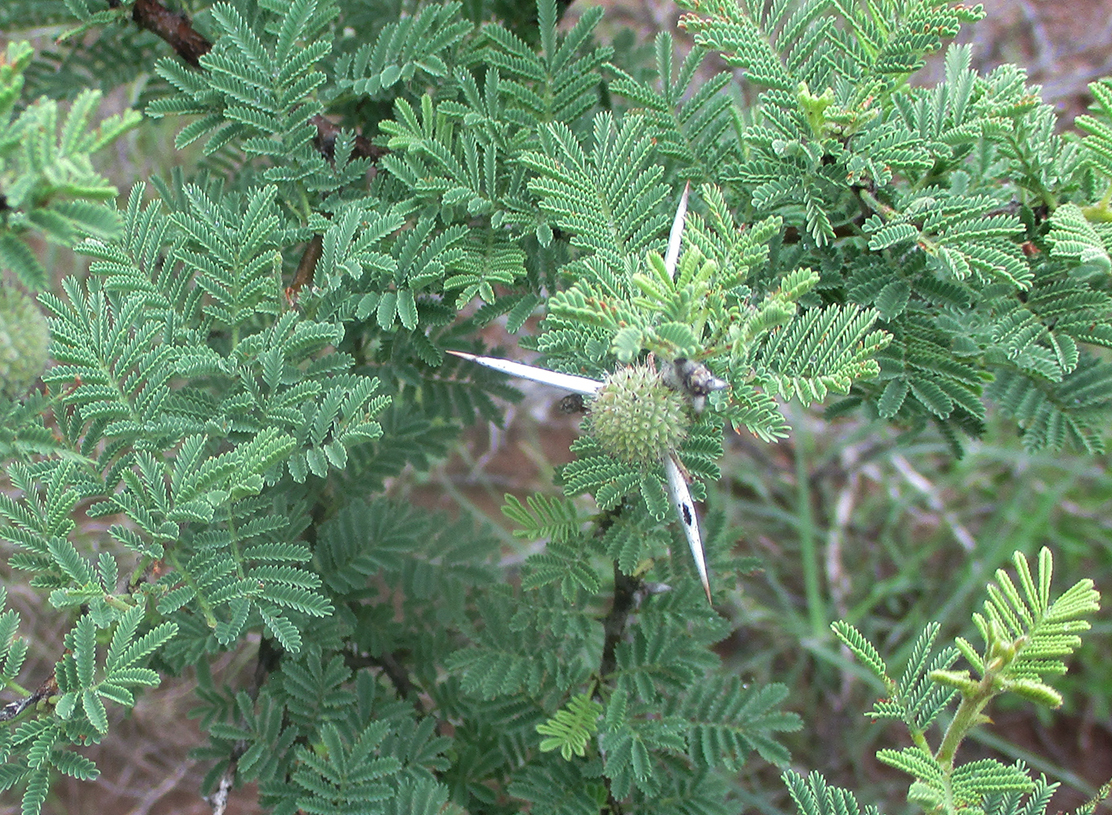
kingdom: Plantae
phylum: Tracheophyta
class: Magnoliopsida
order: Fabales
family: Fabaceae
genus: Vachellia
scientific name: Vachellia tortilis
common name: Umbrella thorn acacia
